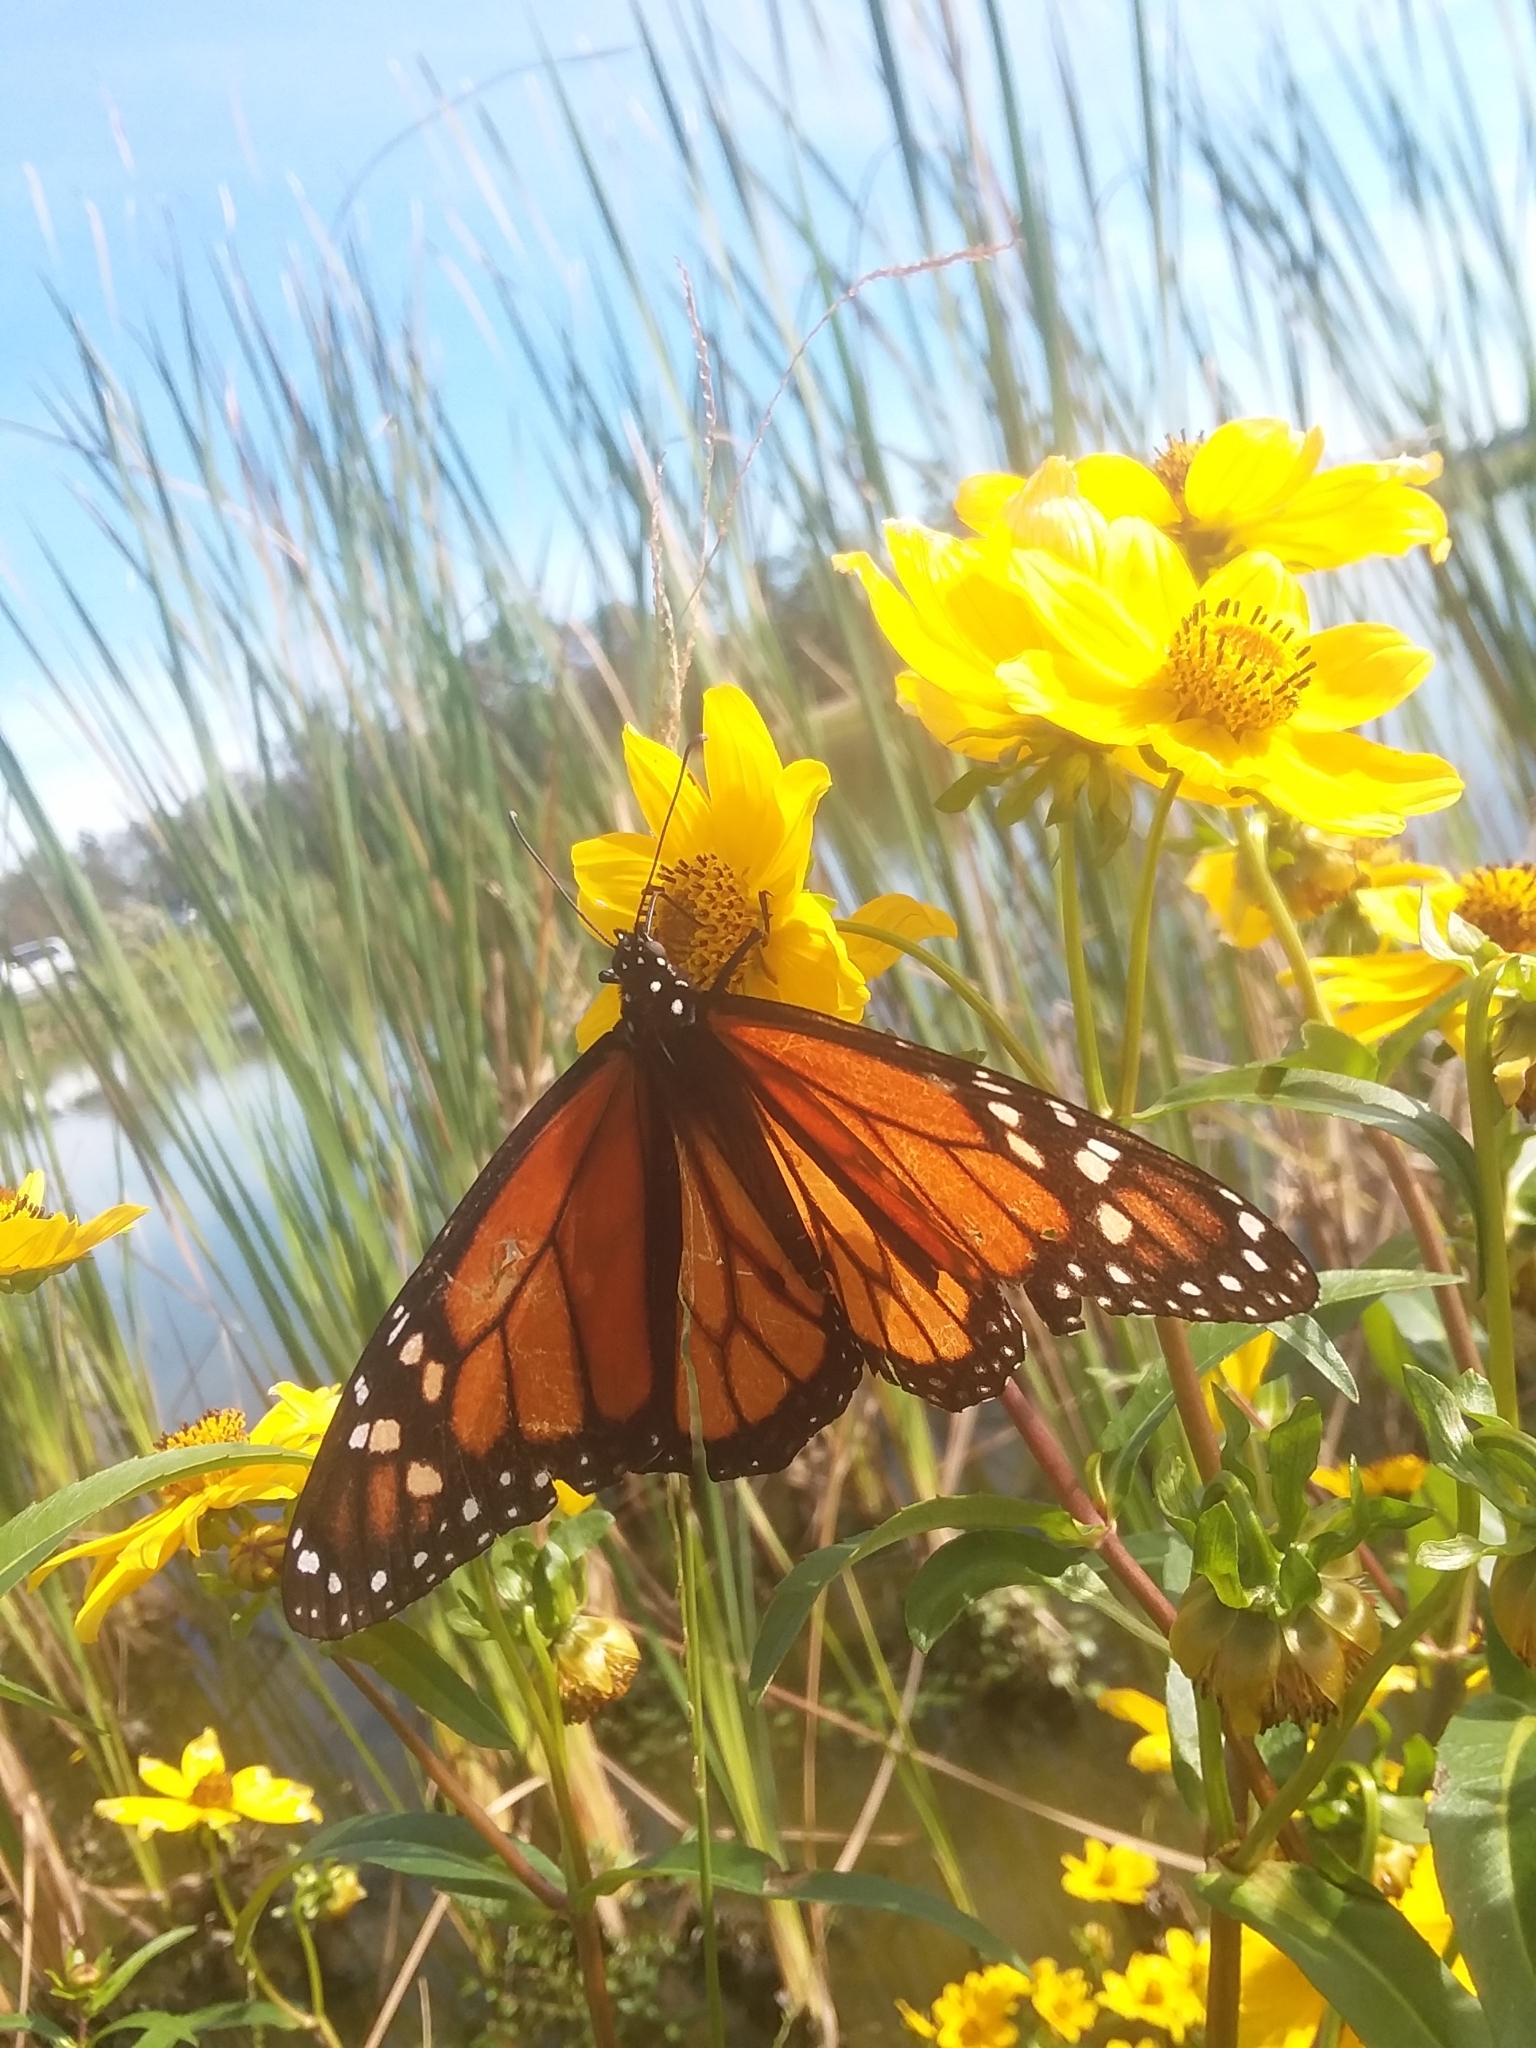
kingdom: Animalia
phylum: Arthropoda
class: Insecta
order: Lepidoptera
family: Nymphalidae
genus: Danaus
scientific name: Danaus plexippus
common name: Monarch
